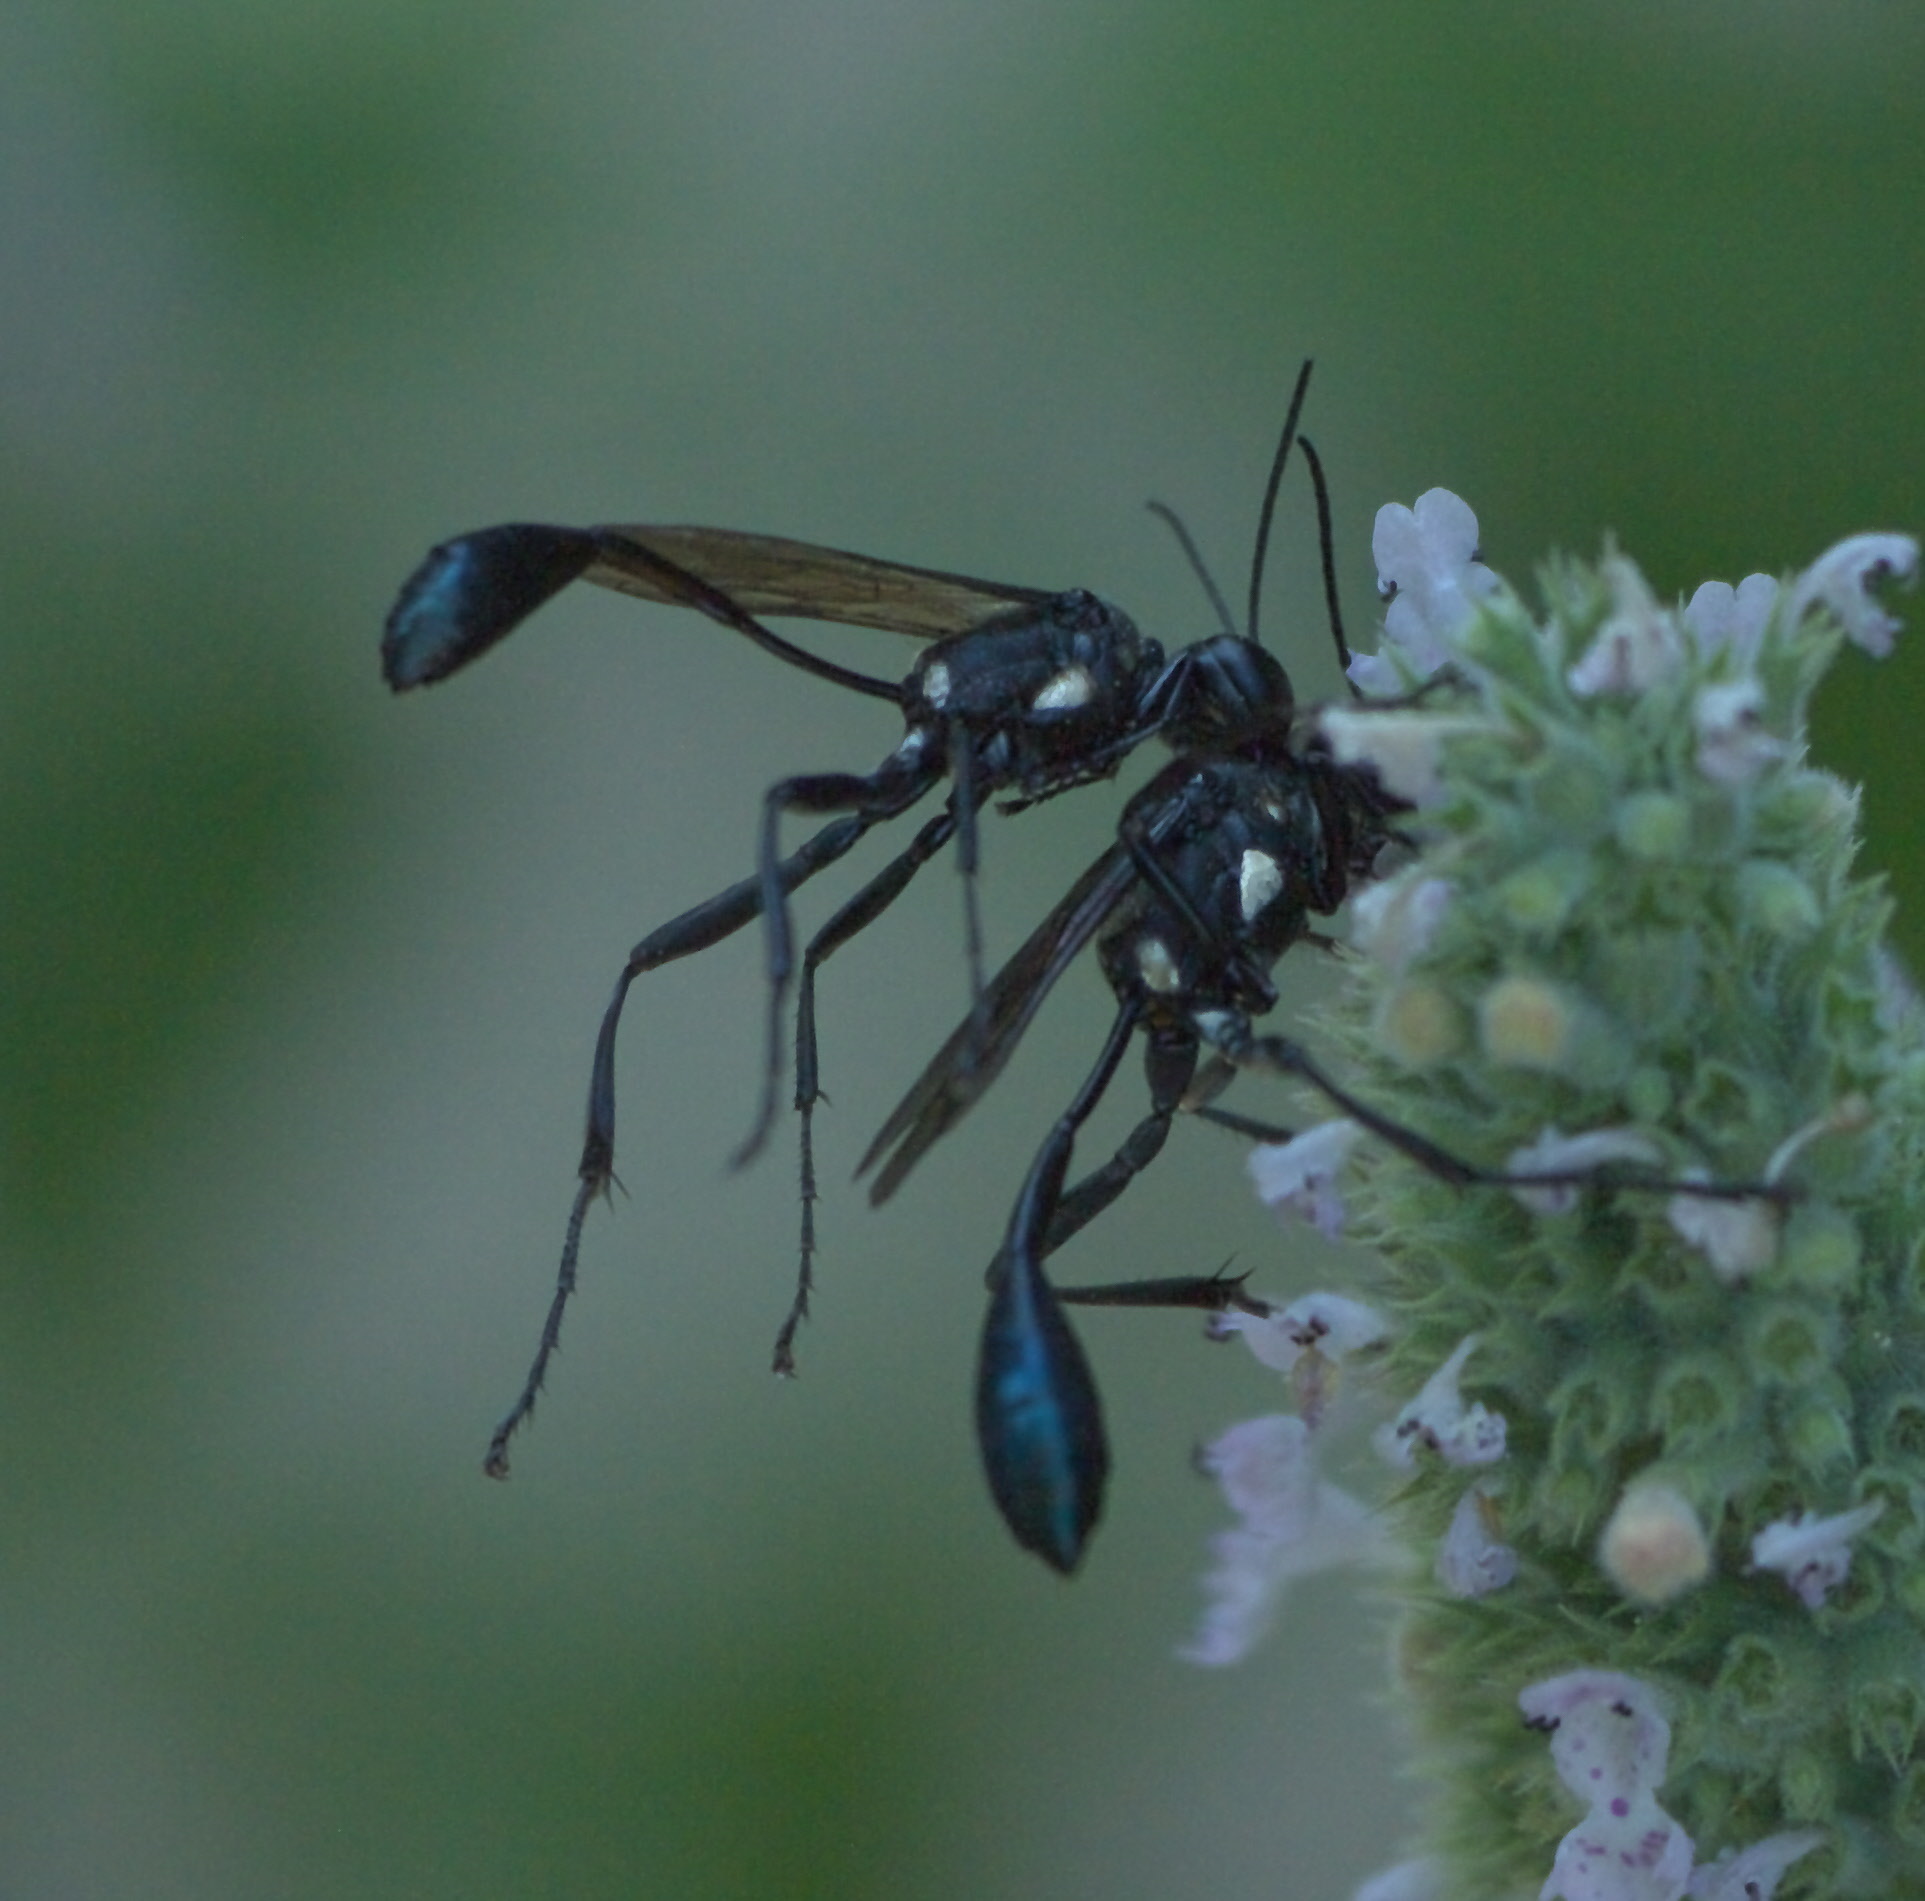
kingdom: Animalia
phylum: Arthropoda
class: Insecta
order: Hymenoptera
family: Sphecidae
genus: Eremnophila
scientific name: Eremnophila aureonotata
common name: Gold-marked thread-waisted wasp
